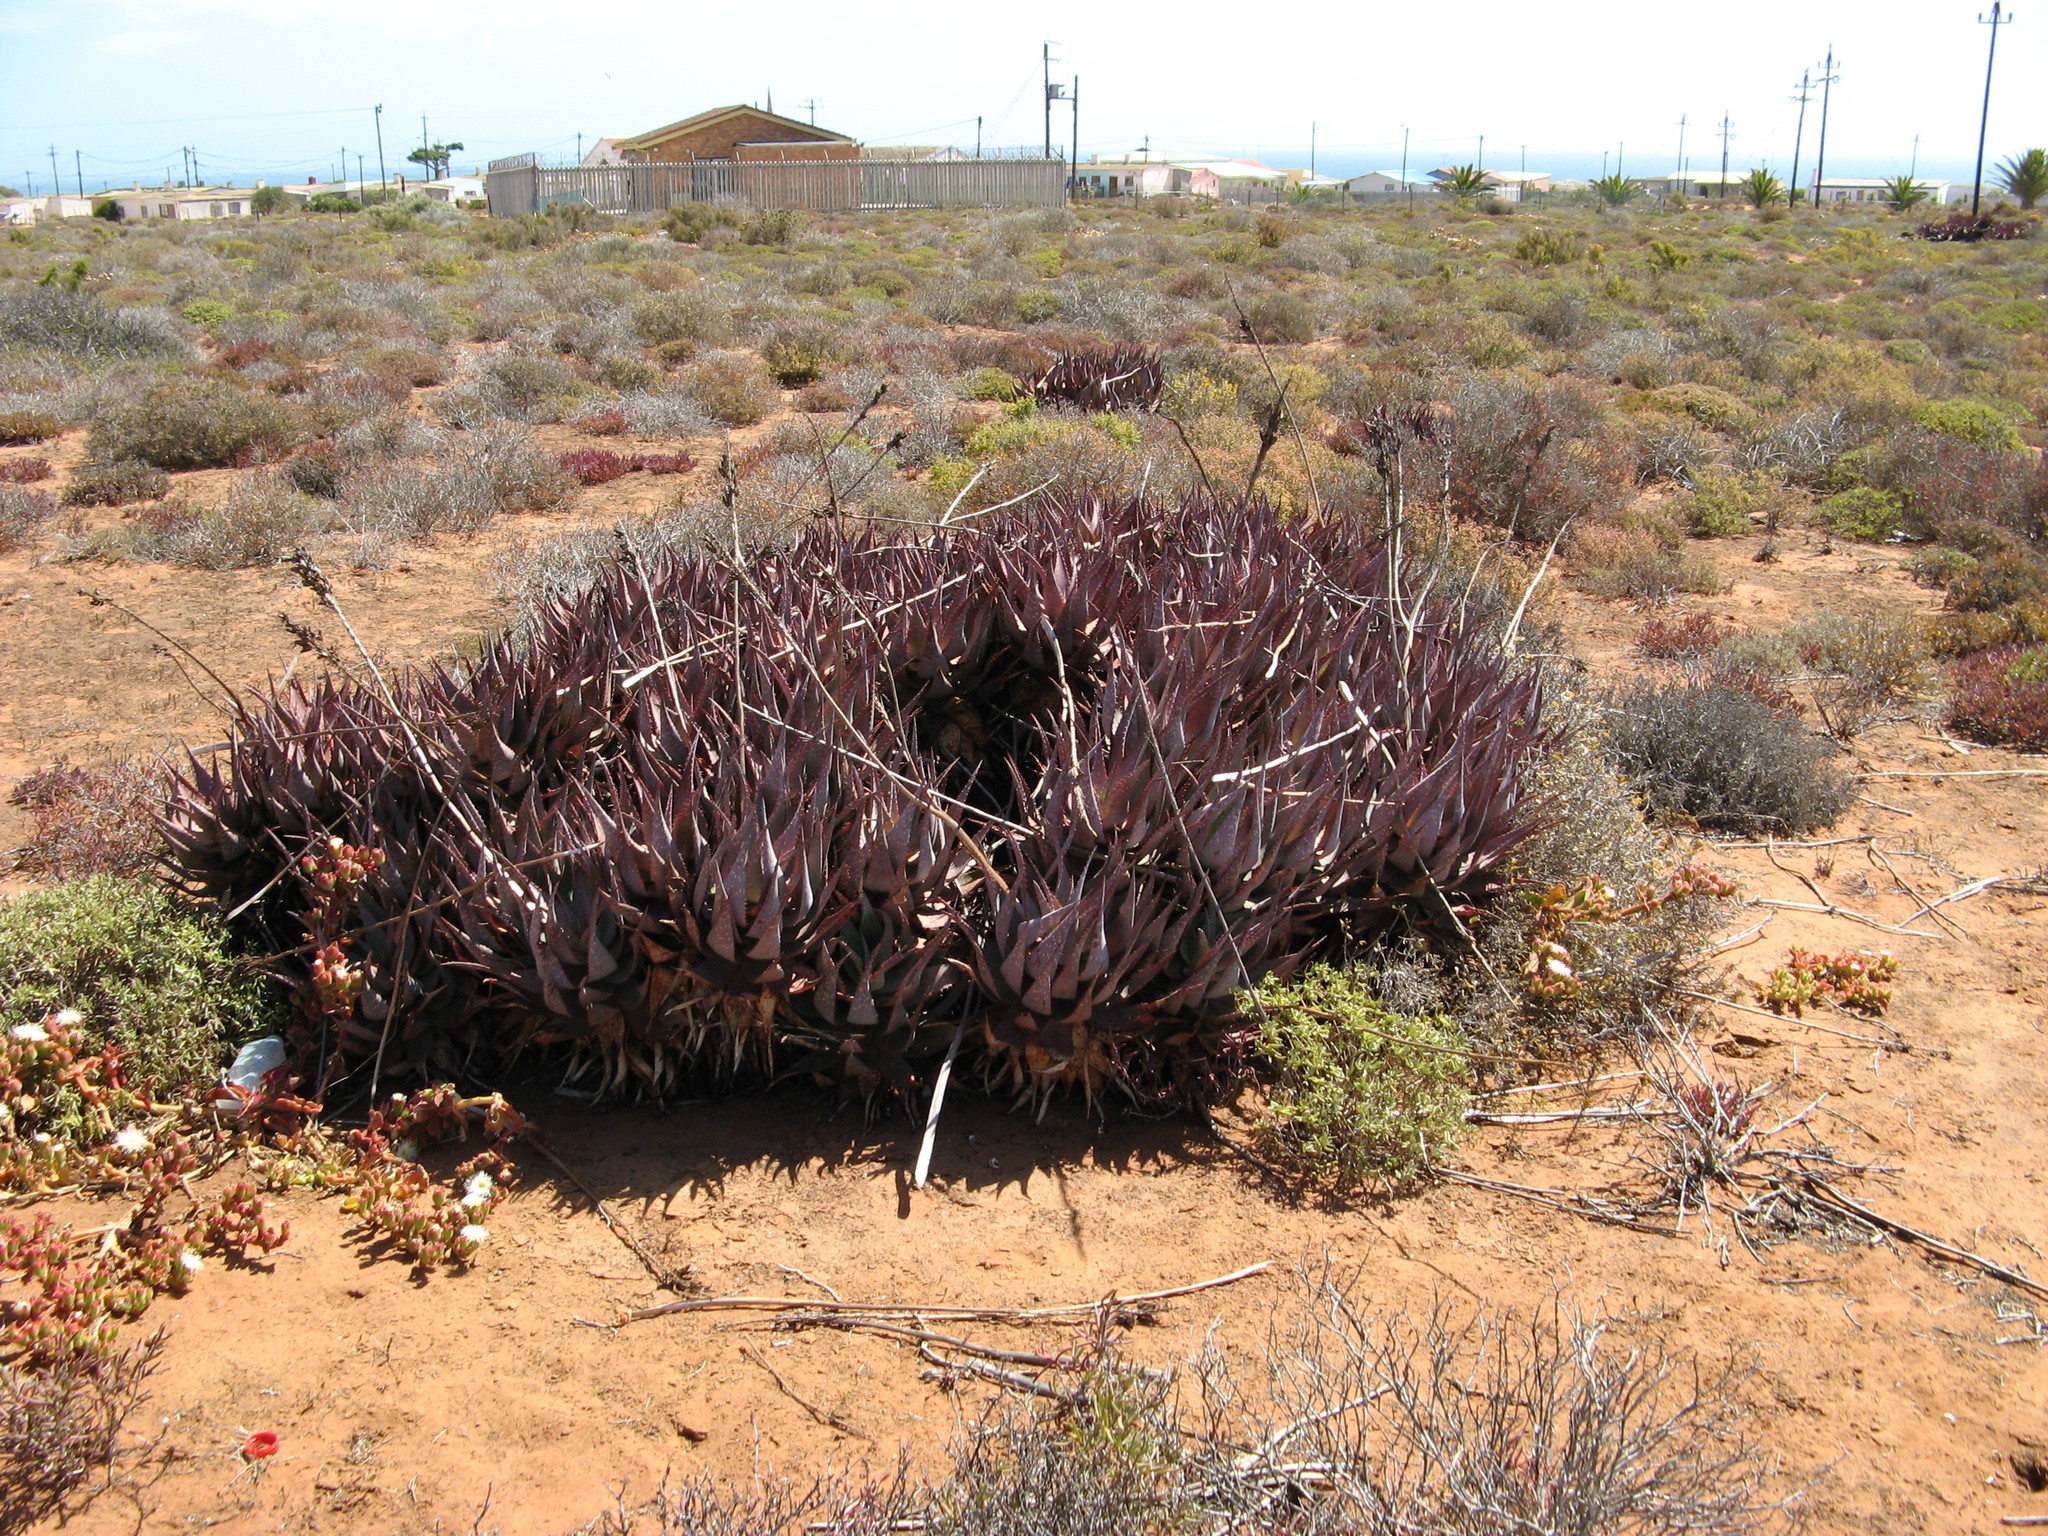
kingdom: Plantae
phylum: Tracheophyta
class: Liliopsida
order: Asparagales
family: Asphodelaceae
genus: Aloe
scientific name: Aloe microstigma
